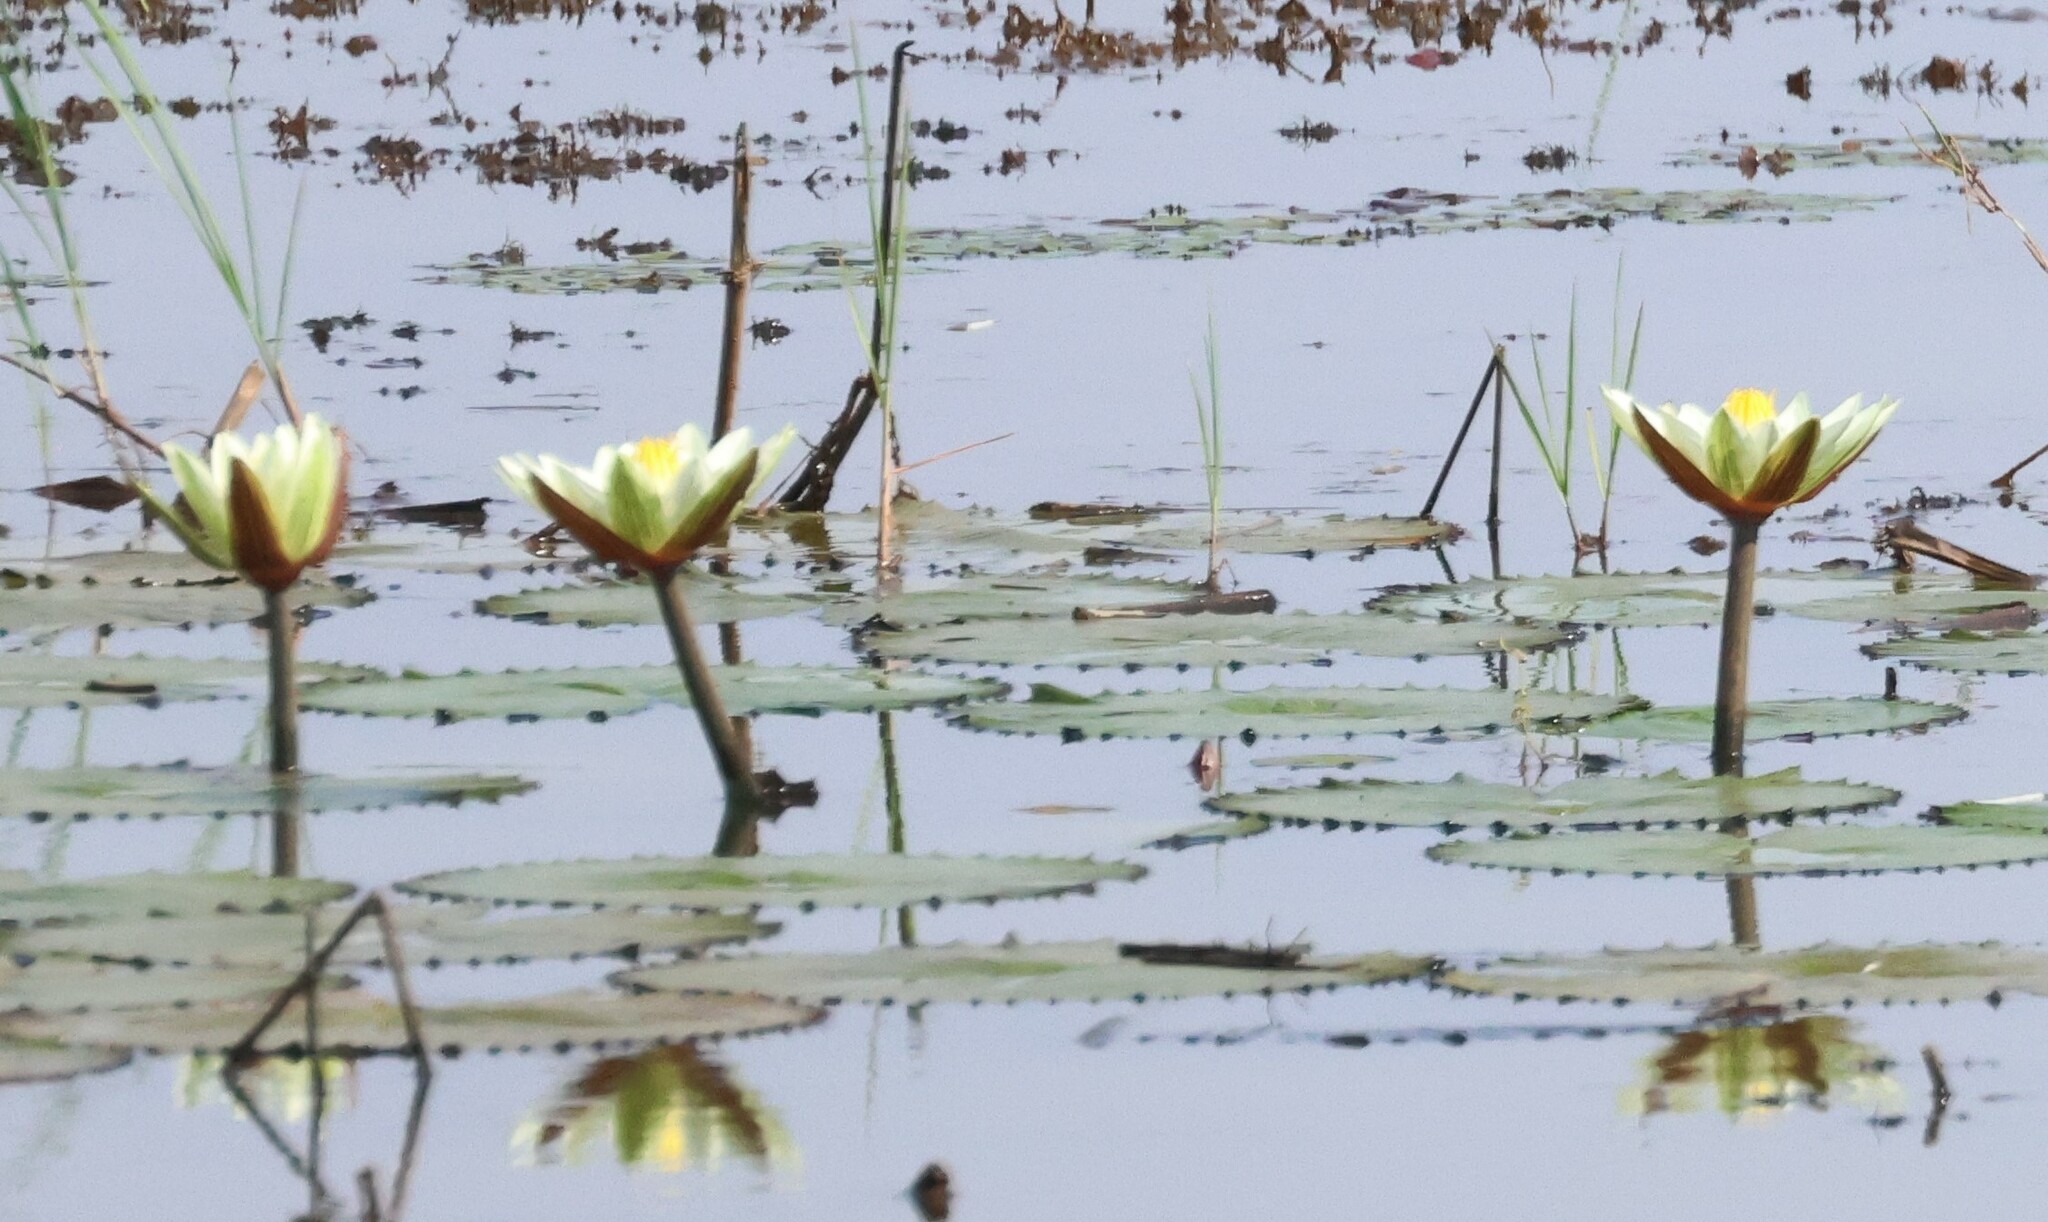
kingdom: Plantae
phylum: Tracheophyta
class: Magnoliopsida
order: Nymphaeales
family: Nymphaeaceae
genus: Nymphaea
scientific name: Nymphaea lotus
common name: White egyptian lotus
